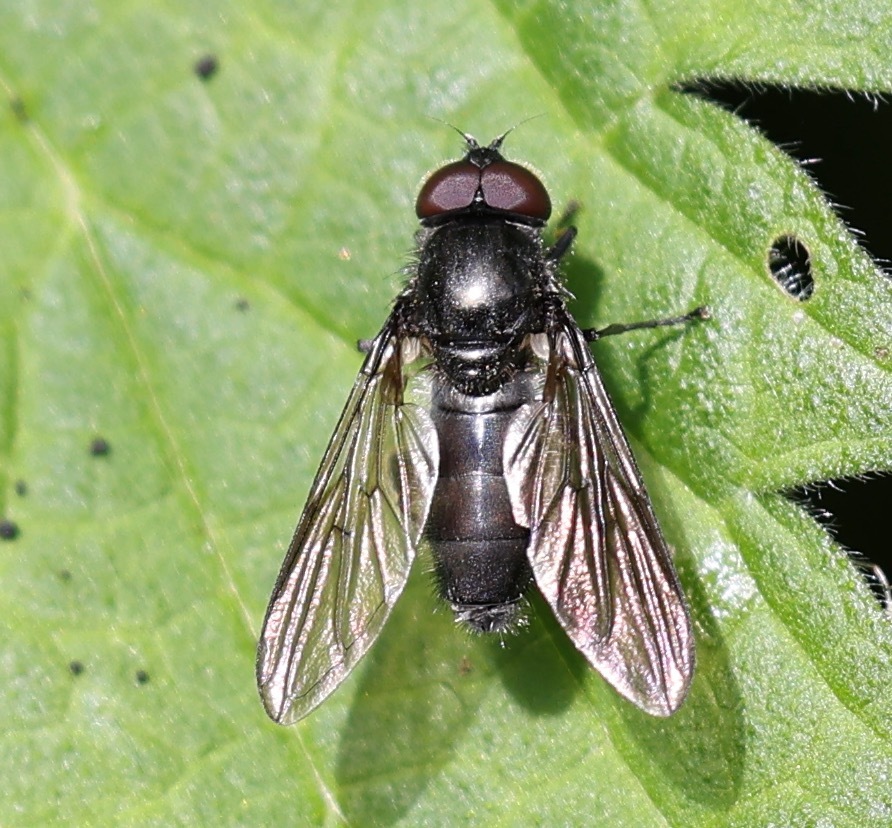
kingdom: Animalia
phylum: Arthropoda
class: Insecta
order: Diptera
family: Syrphidae
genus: Cheilosia
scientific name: Cheilosia variabilis
